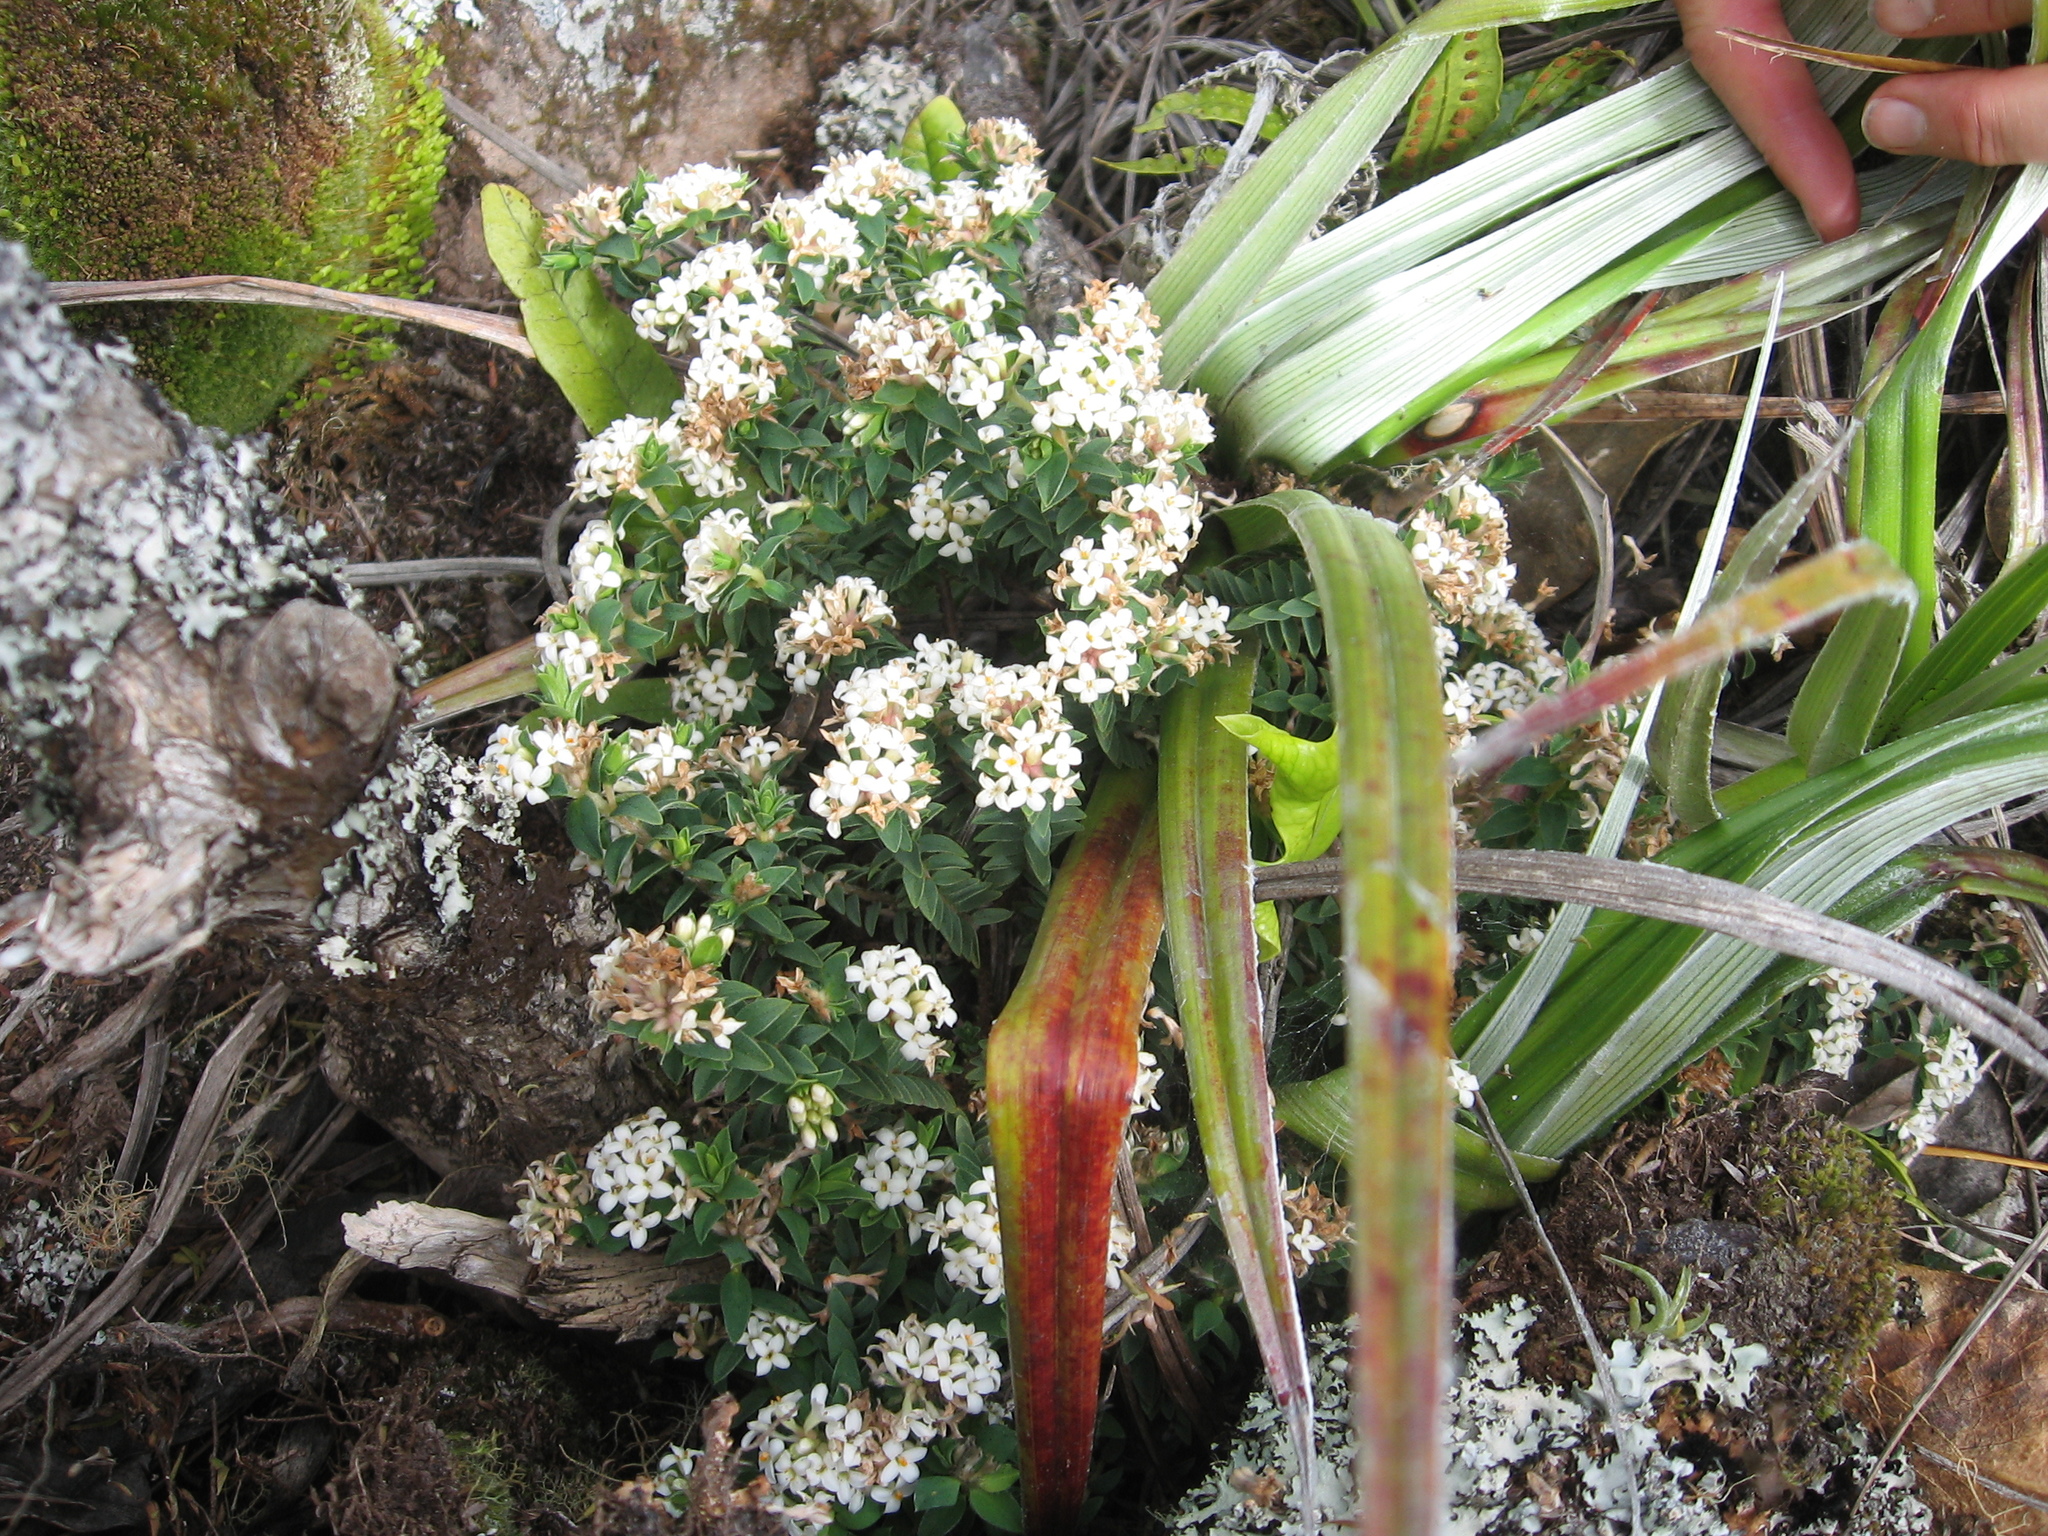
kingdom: Plantae
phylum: Tracheophyta
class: Magnoliopsida
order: Malvales
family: Thymelaeaceae
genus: Pimelea
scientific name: Pimelea acra
